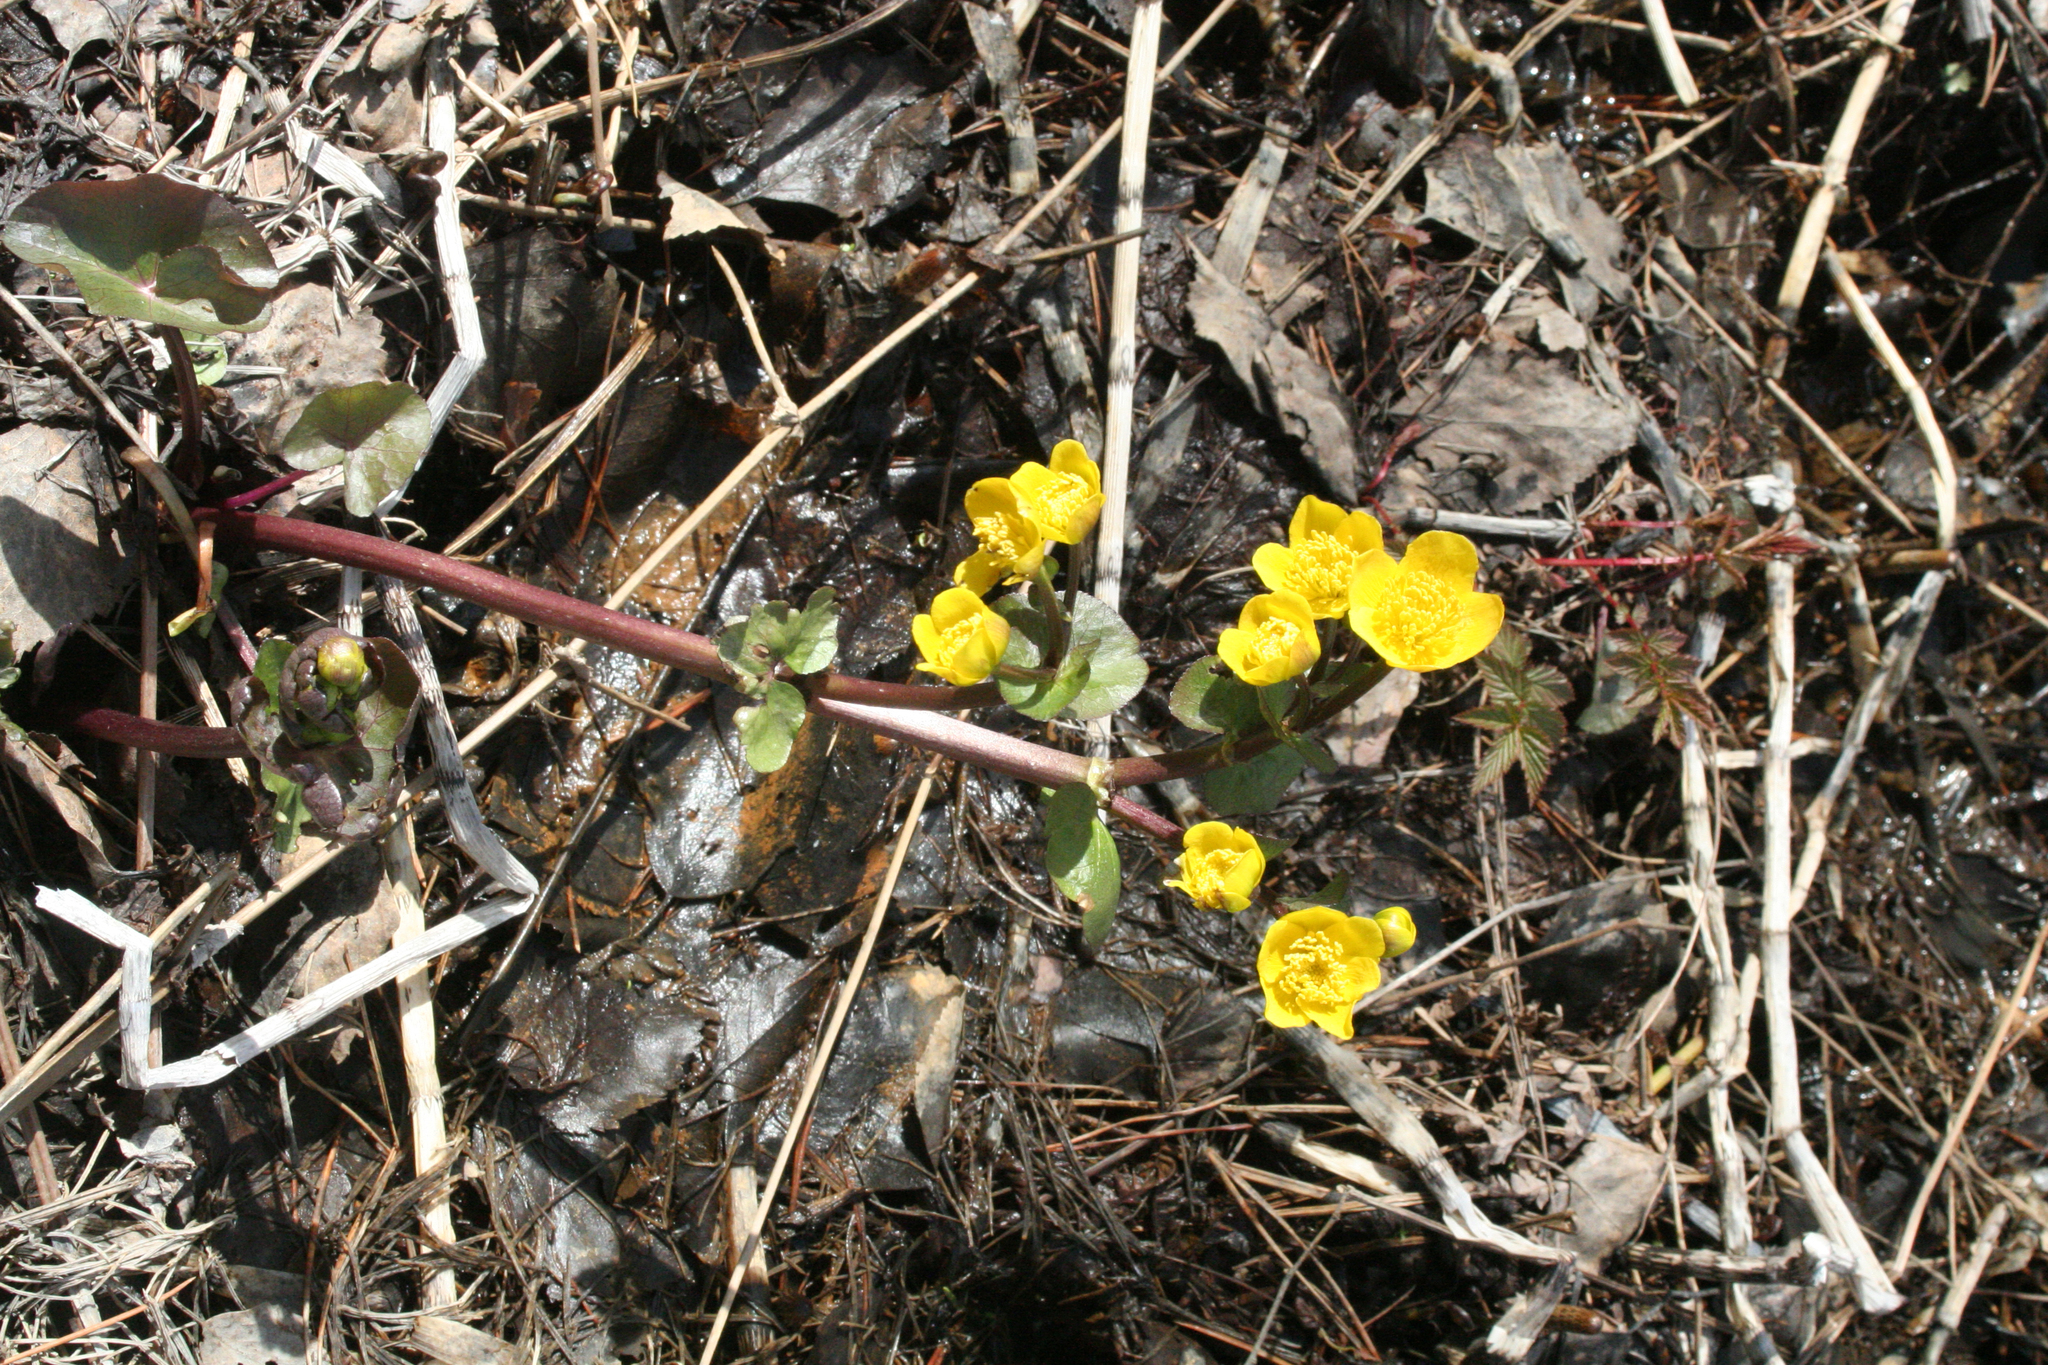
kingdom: Plantae
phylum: Tracheophyta
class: Magnoliopsida
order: Ranunculales
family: Ranunculaceae
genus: Caltha
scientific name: Caltha palustris
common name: Marsh marigold
